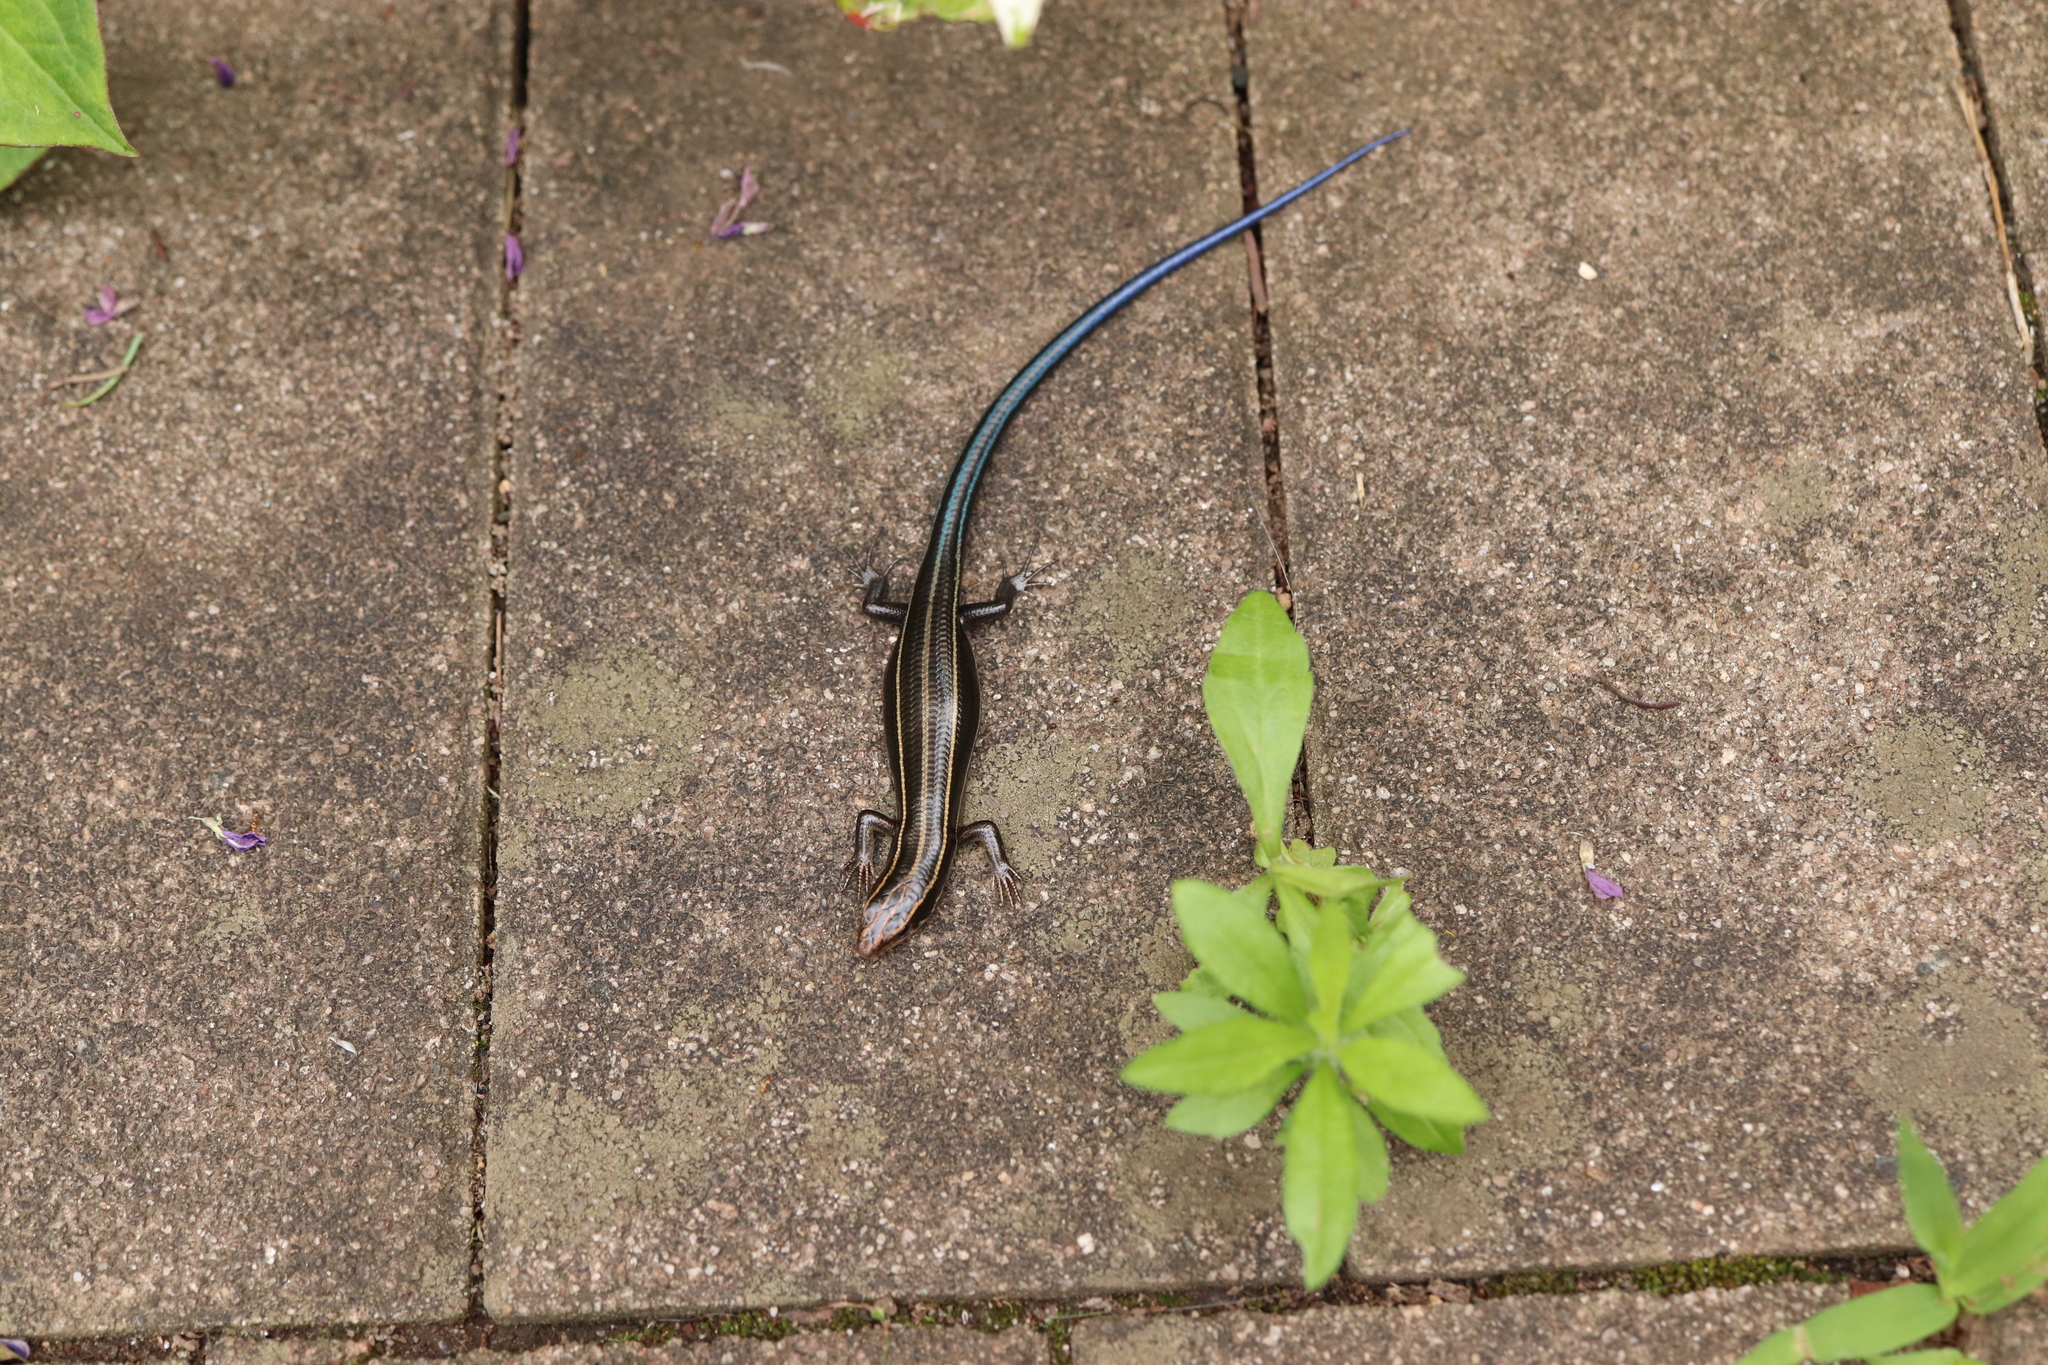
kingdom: Animalia
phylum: Chordata
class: Squamata
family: Scincidae
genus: Plestiodon
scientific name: Plestiodon finitimus
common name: Far eastern skink
